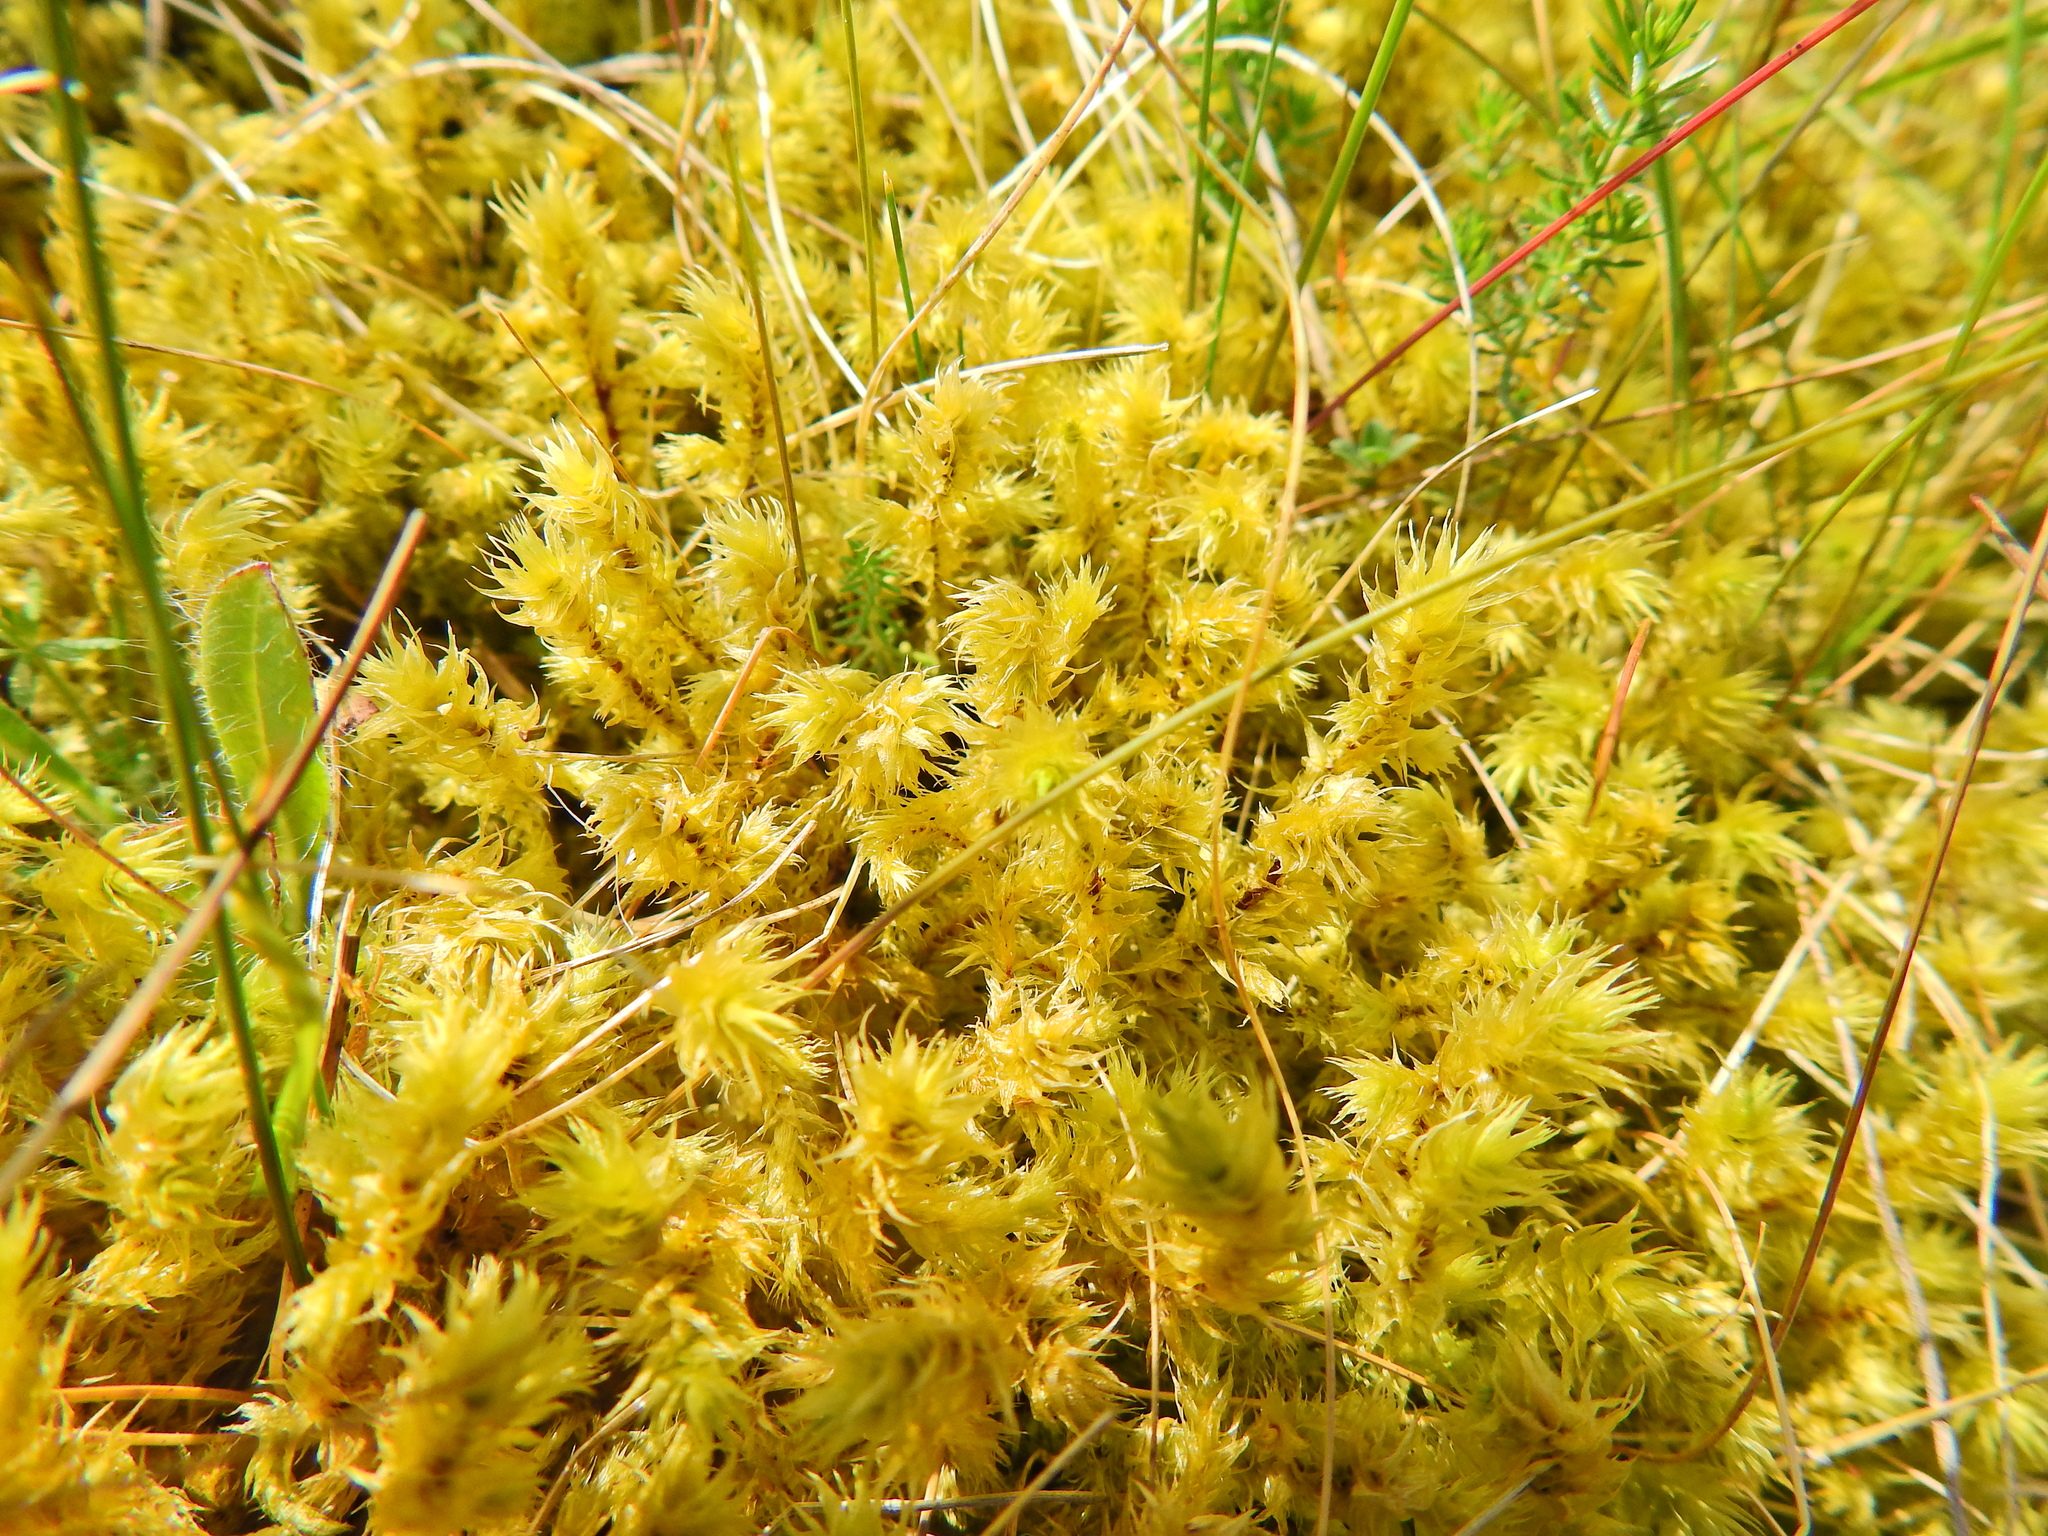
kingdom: Plantae
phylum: Bryophyta
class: Bryopsida
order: Hypnales
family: Hylocomiaceae
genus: Hylocomiadelphus
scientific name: Hylocomiadelphus triquetrus
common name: Rough goose neck moss
